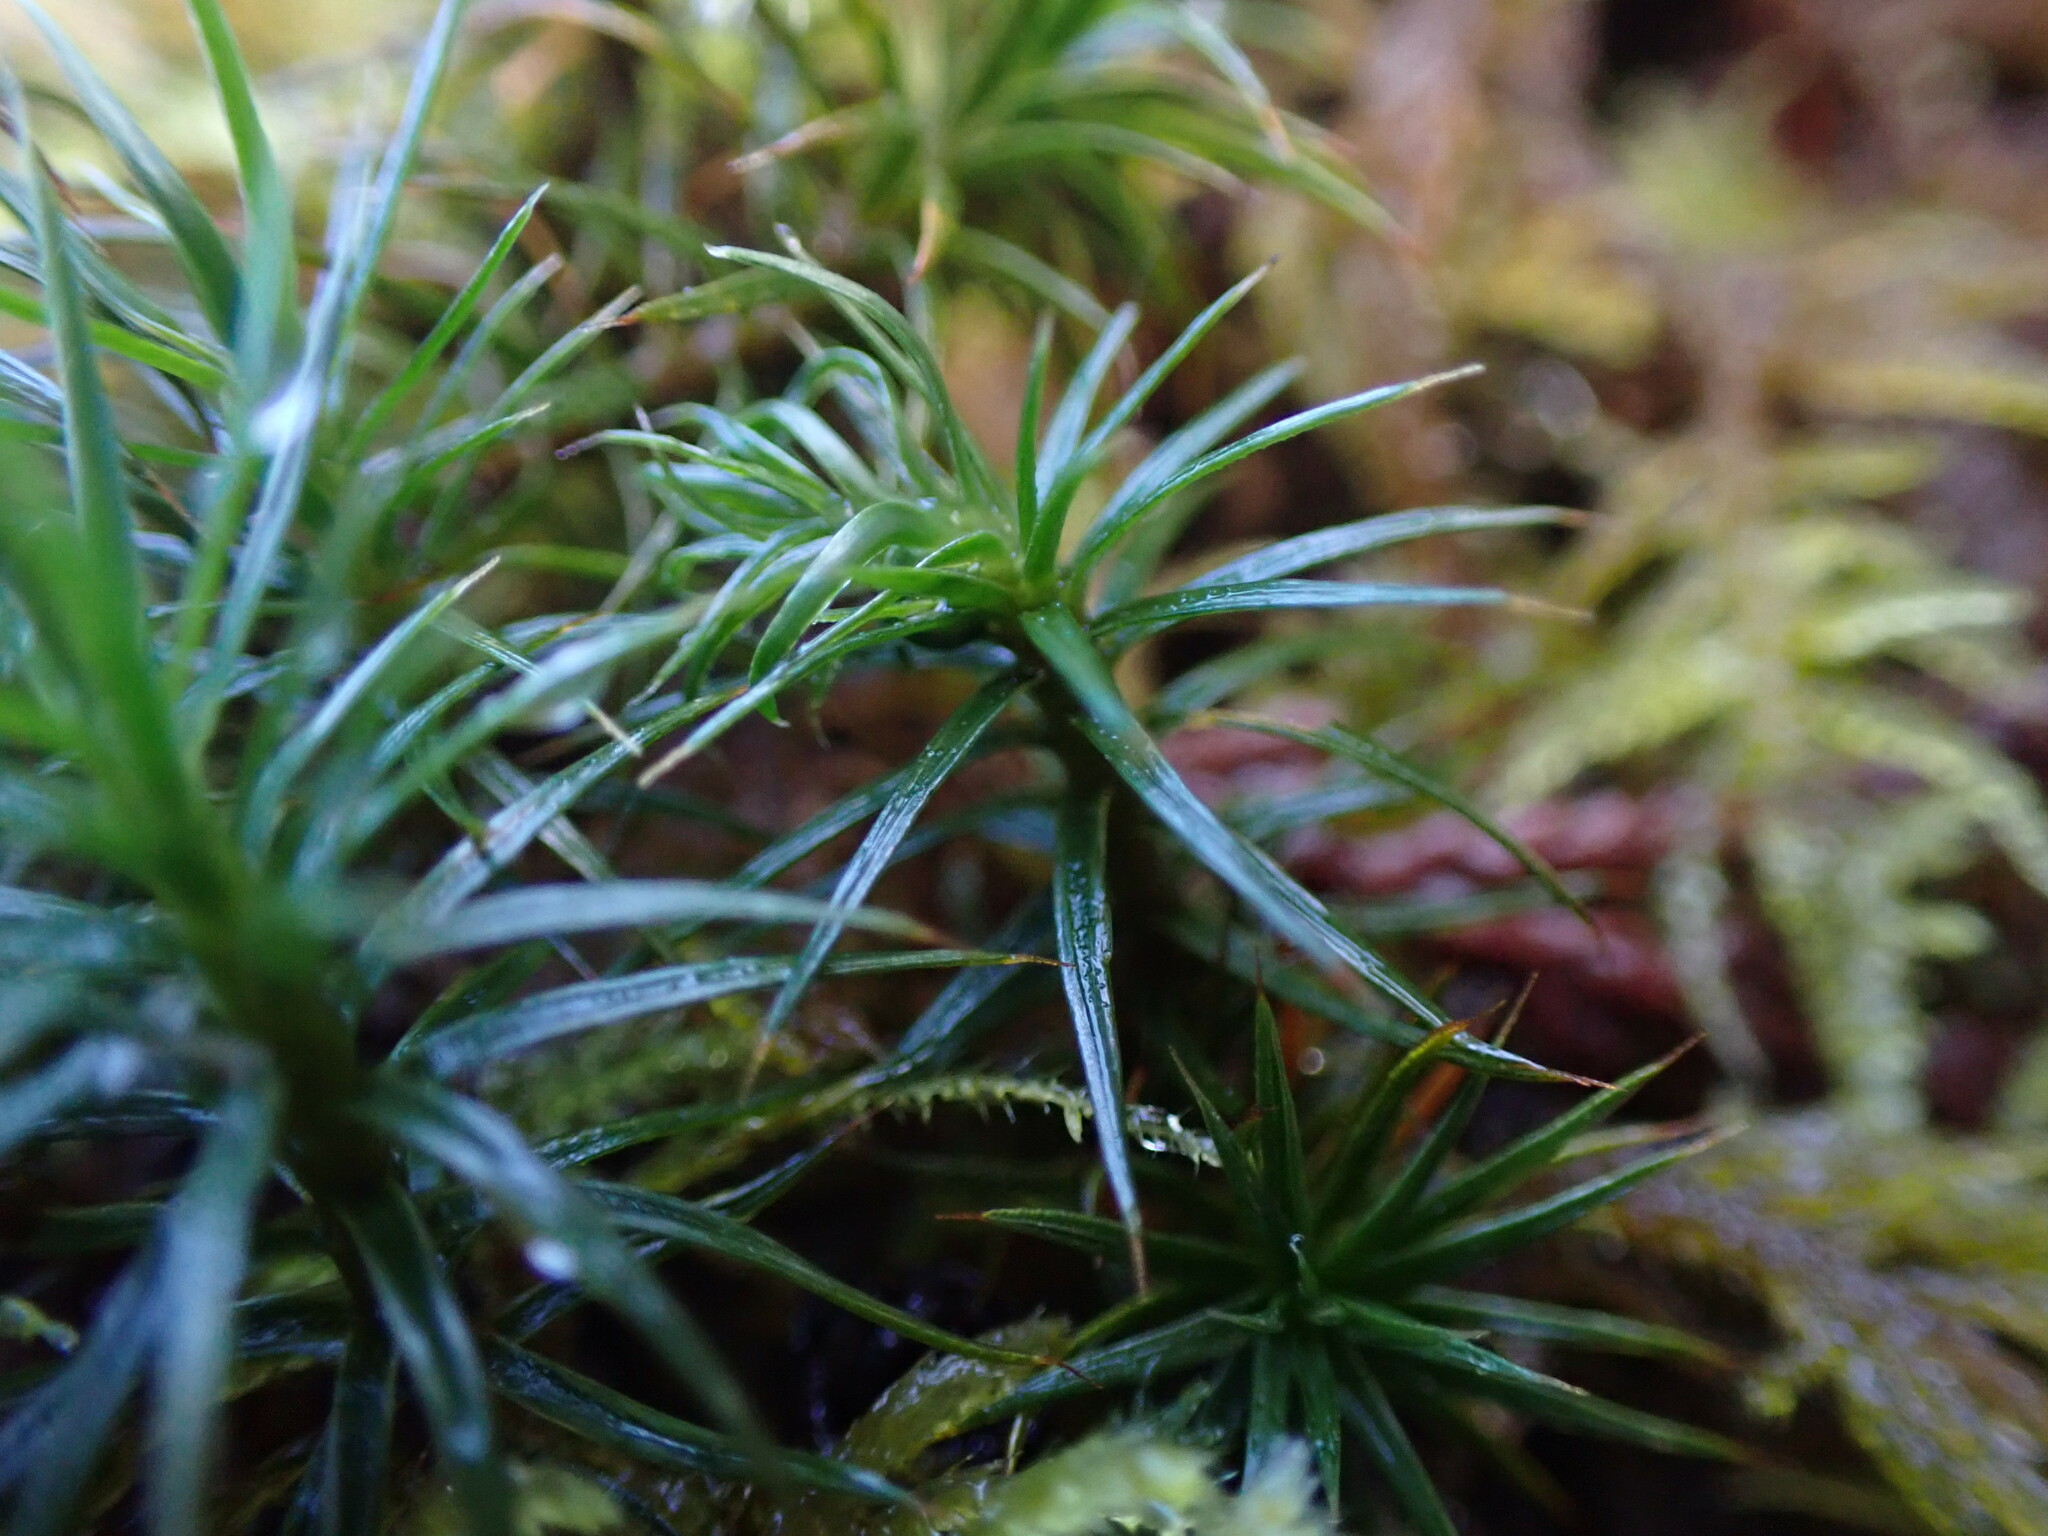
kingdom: Plantae
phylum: Bryophyta
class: Polytrichopsida
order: Polytrichales
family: Polytrichaceae
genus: Polytrichastrum
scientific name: Polytrichastrum alpinum
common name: Alpine haircap
